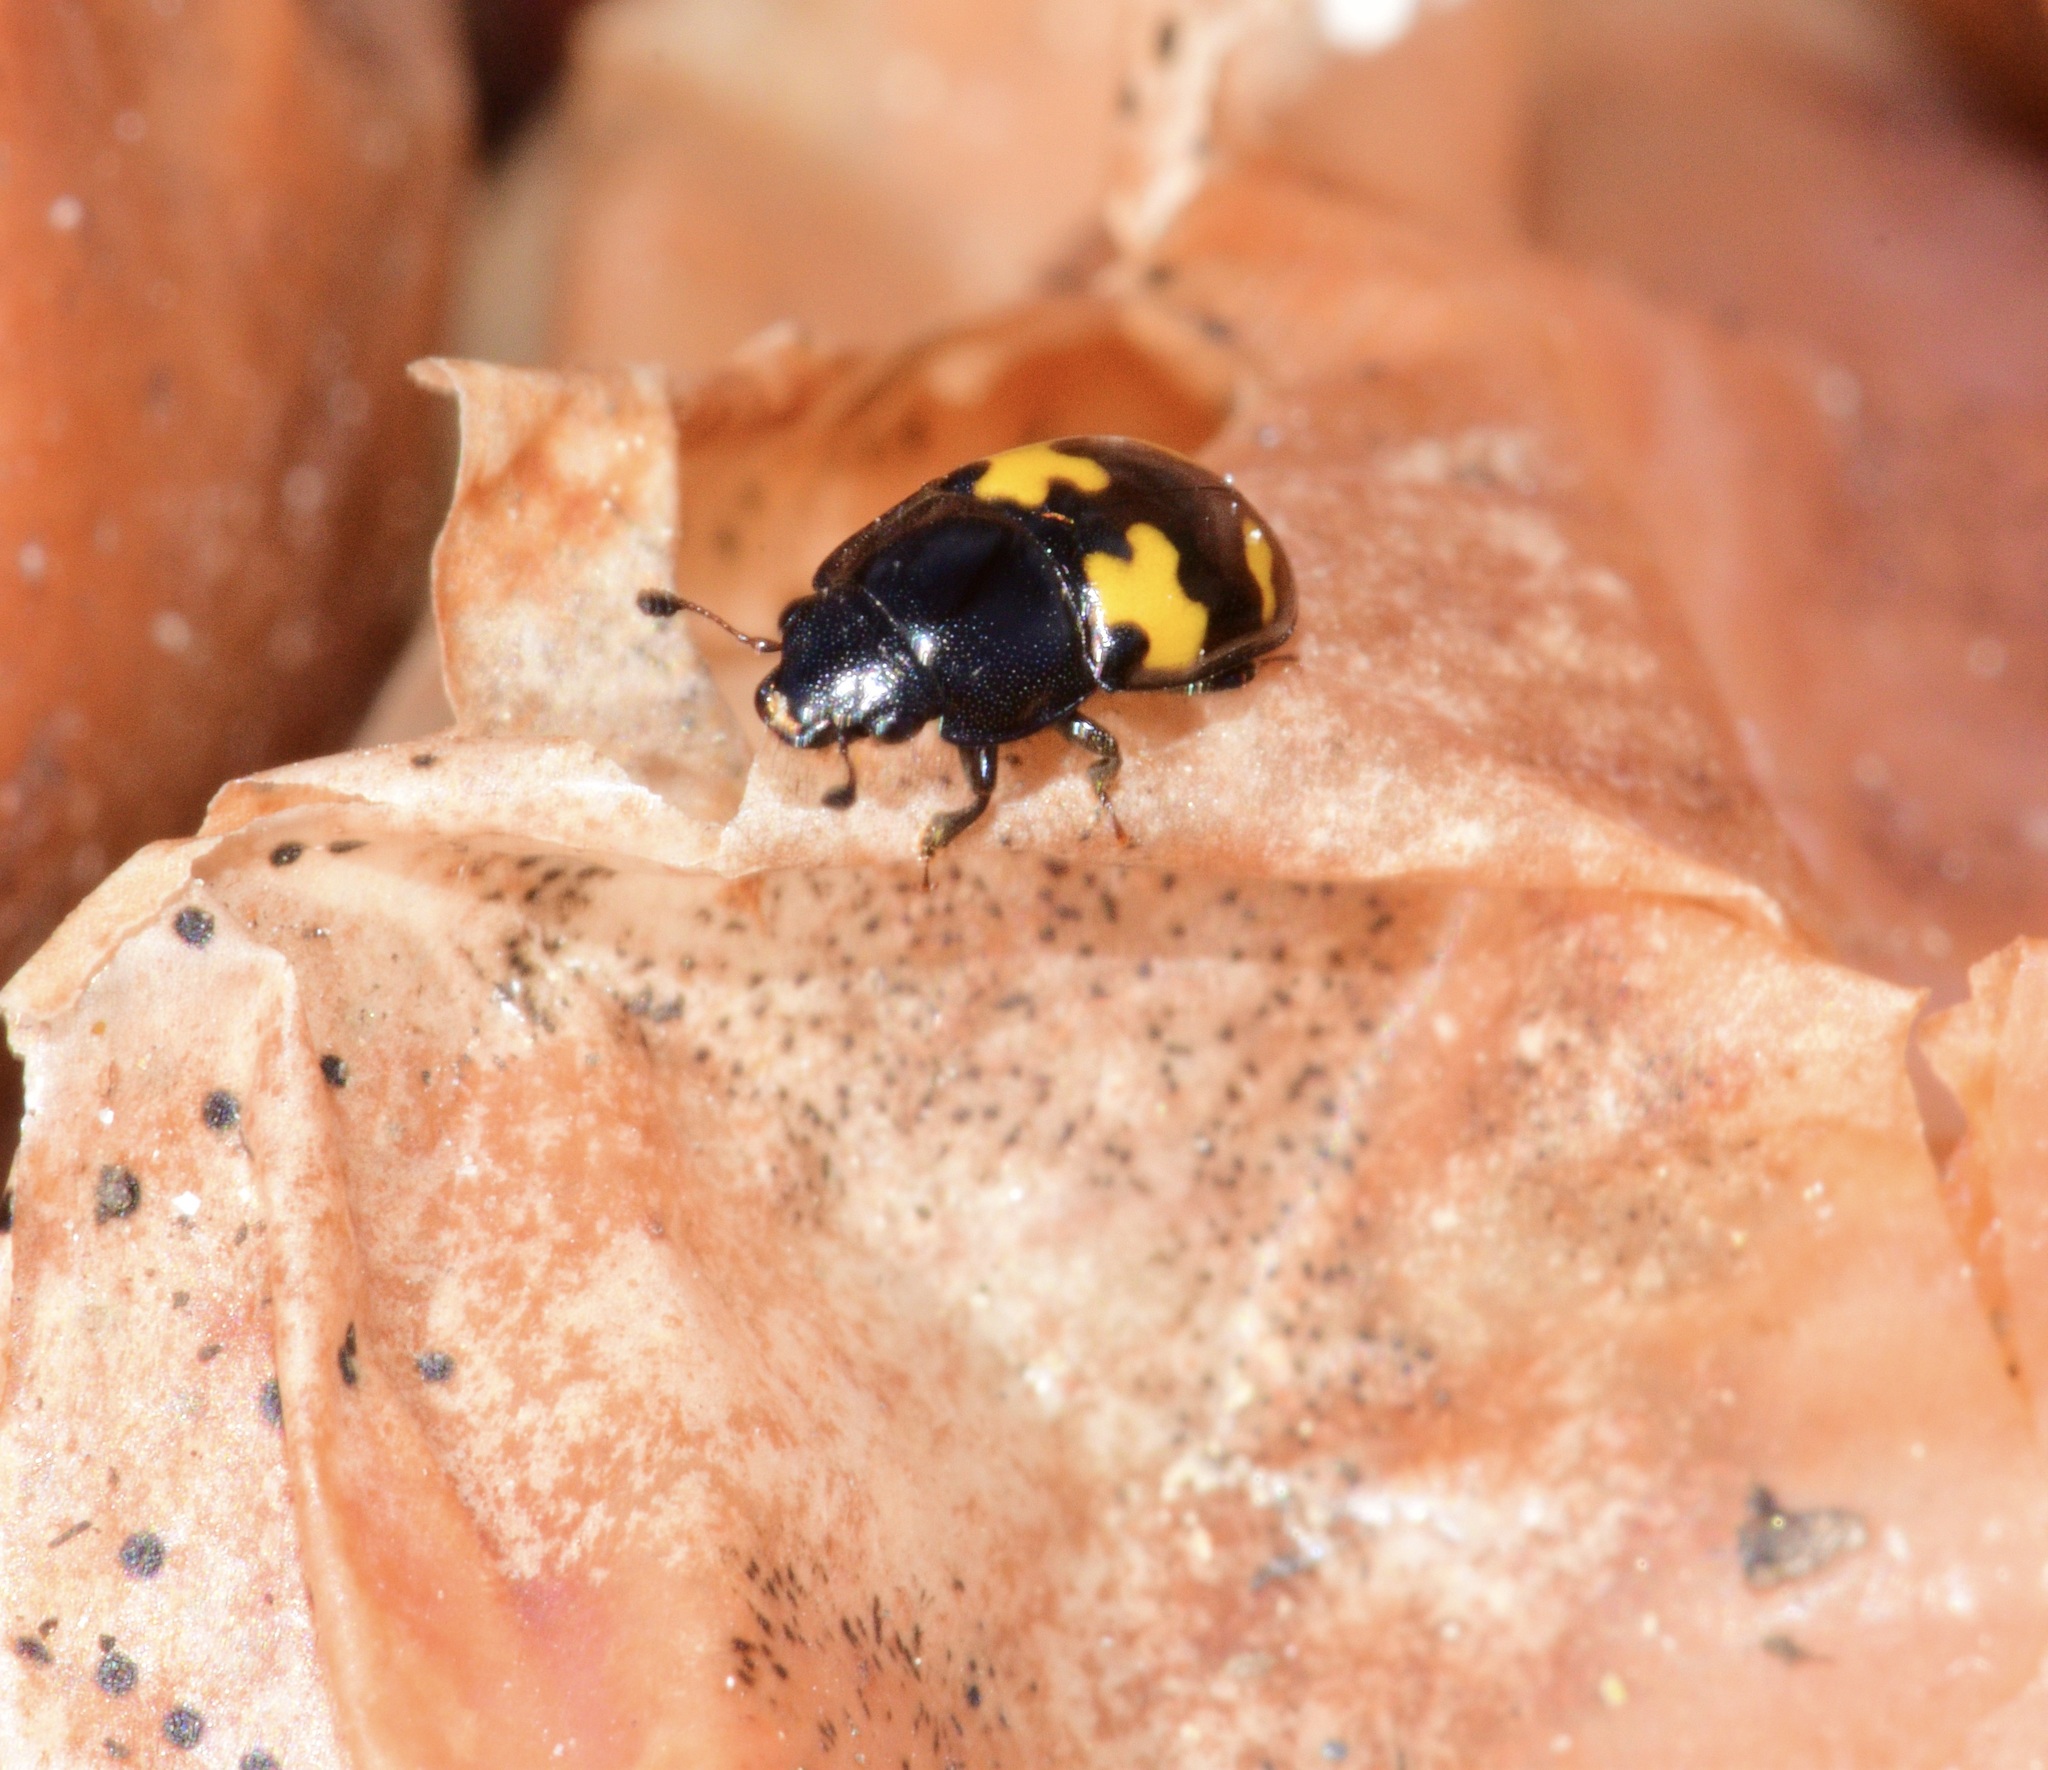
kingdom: Animalia
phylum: Arthropoda
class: Insecta
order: Coleoptera
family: Nitidulidae
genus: Glischrochilus
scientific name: Glischrochilus fasciatus
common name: Picnic beetle
